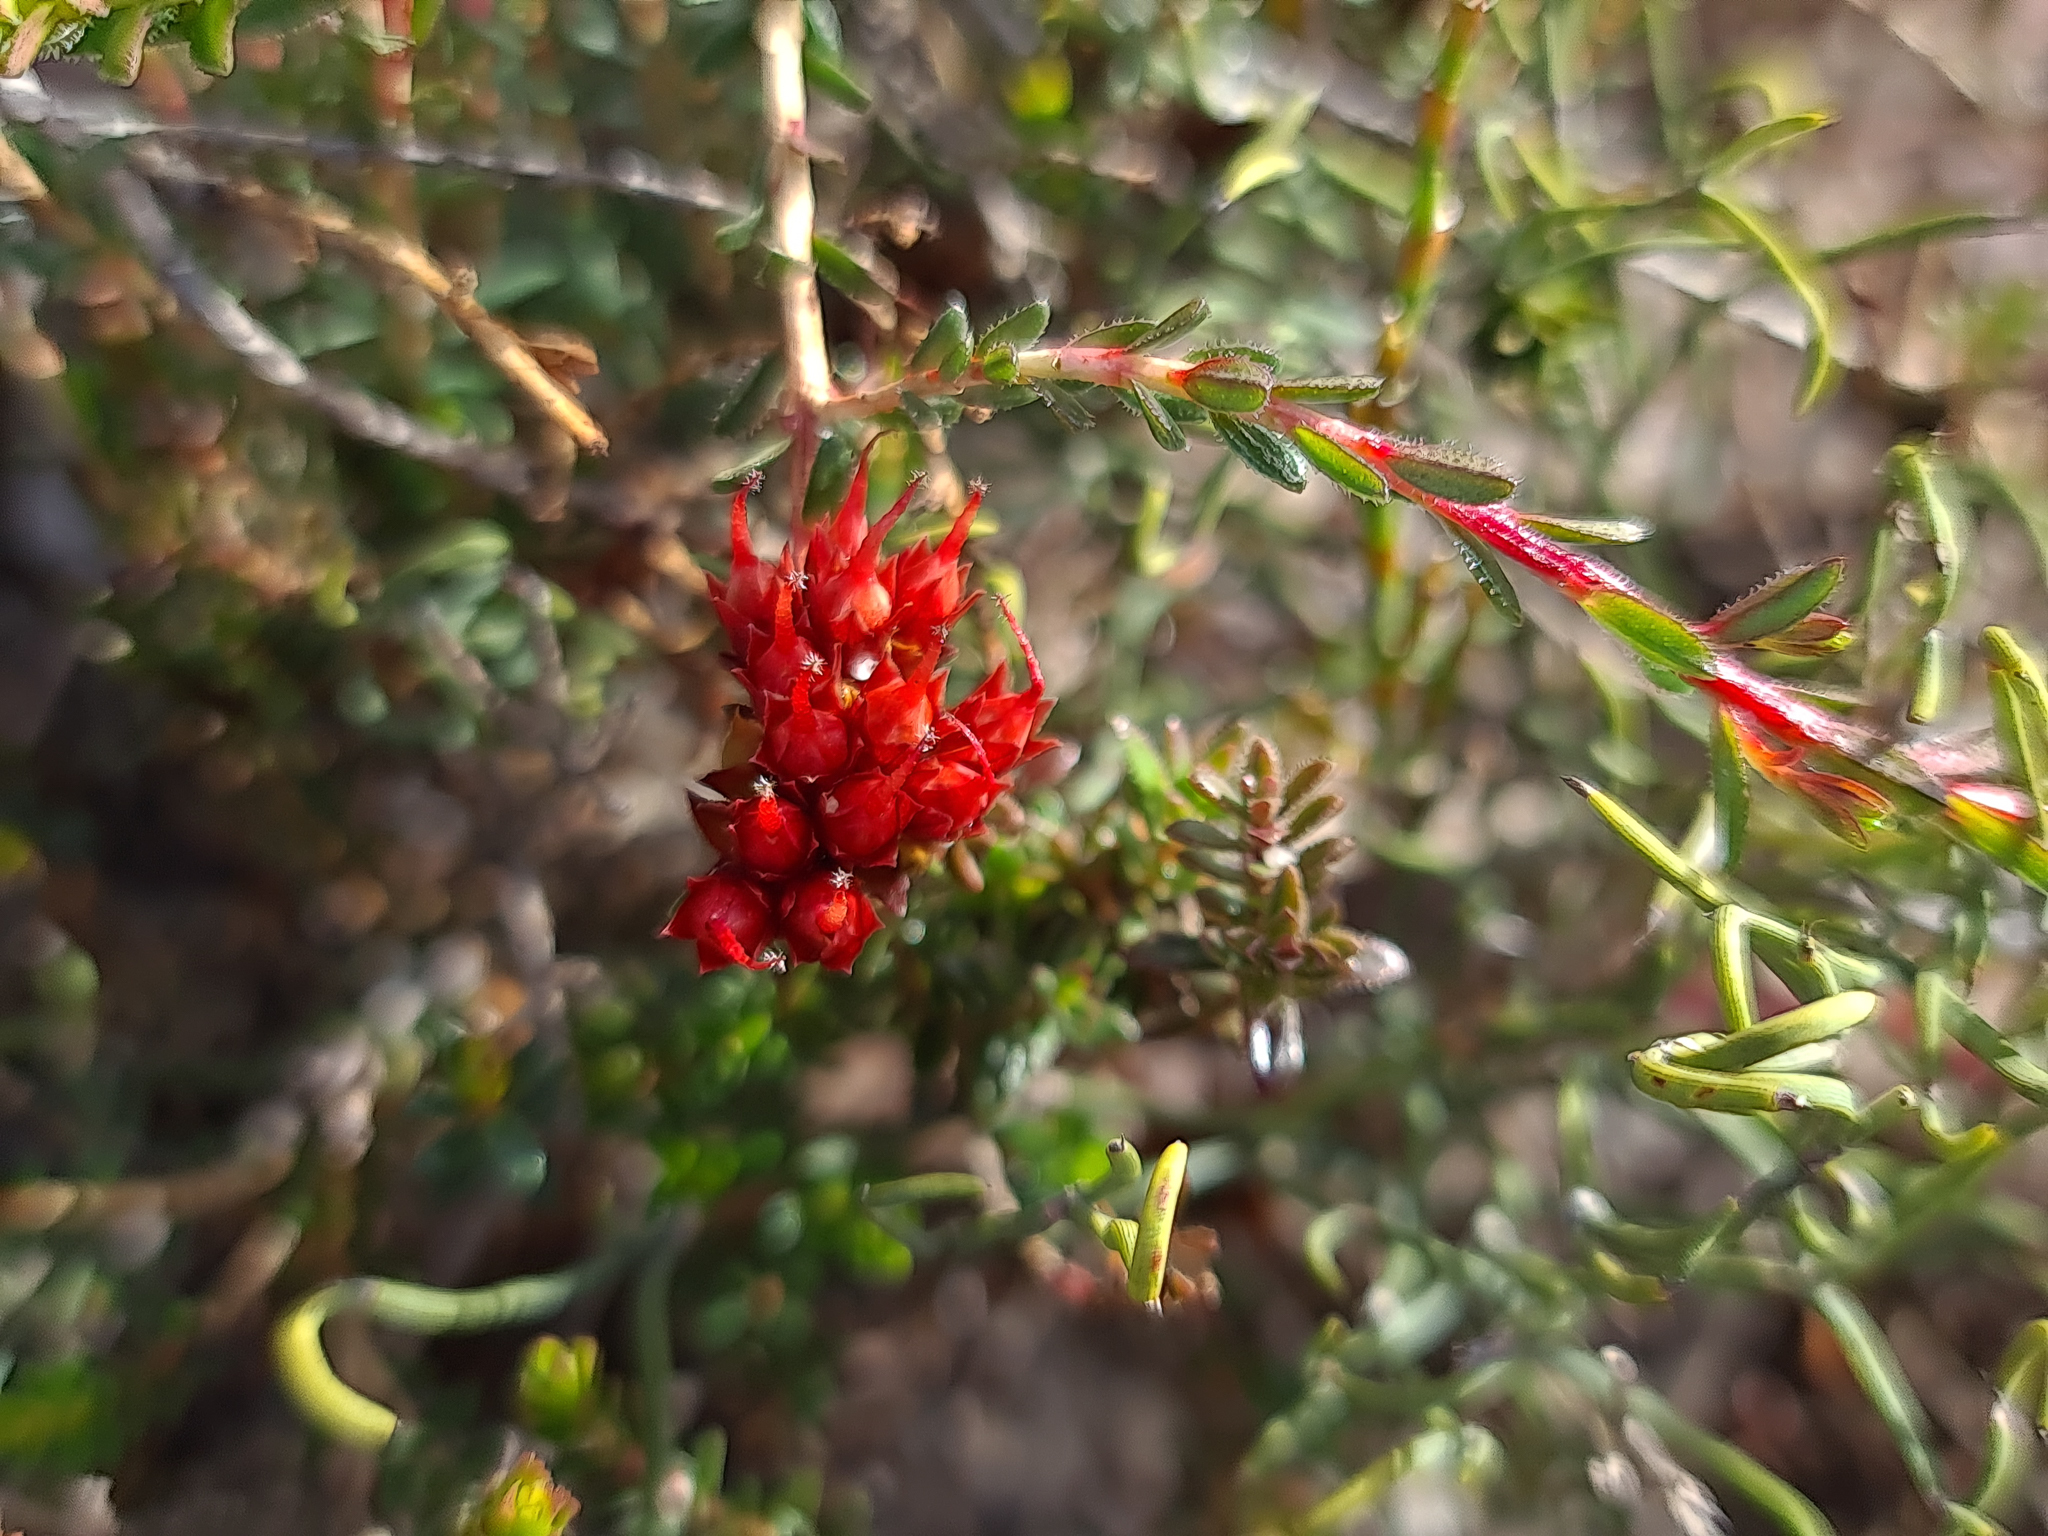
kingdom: Plantae
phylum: Tracheophyta
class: Magnoliopsida
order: Myrtales
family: Myrtaceae
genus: Darwinia
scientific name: Darwinia sanguinea
